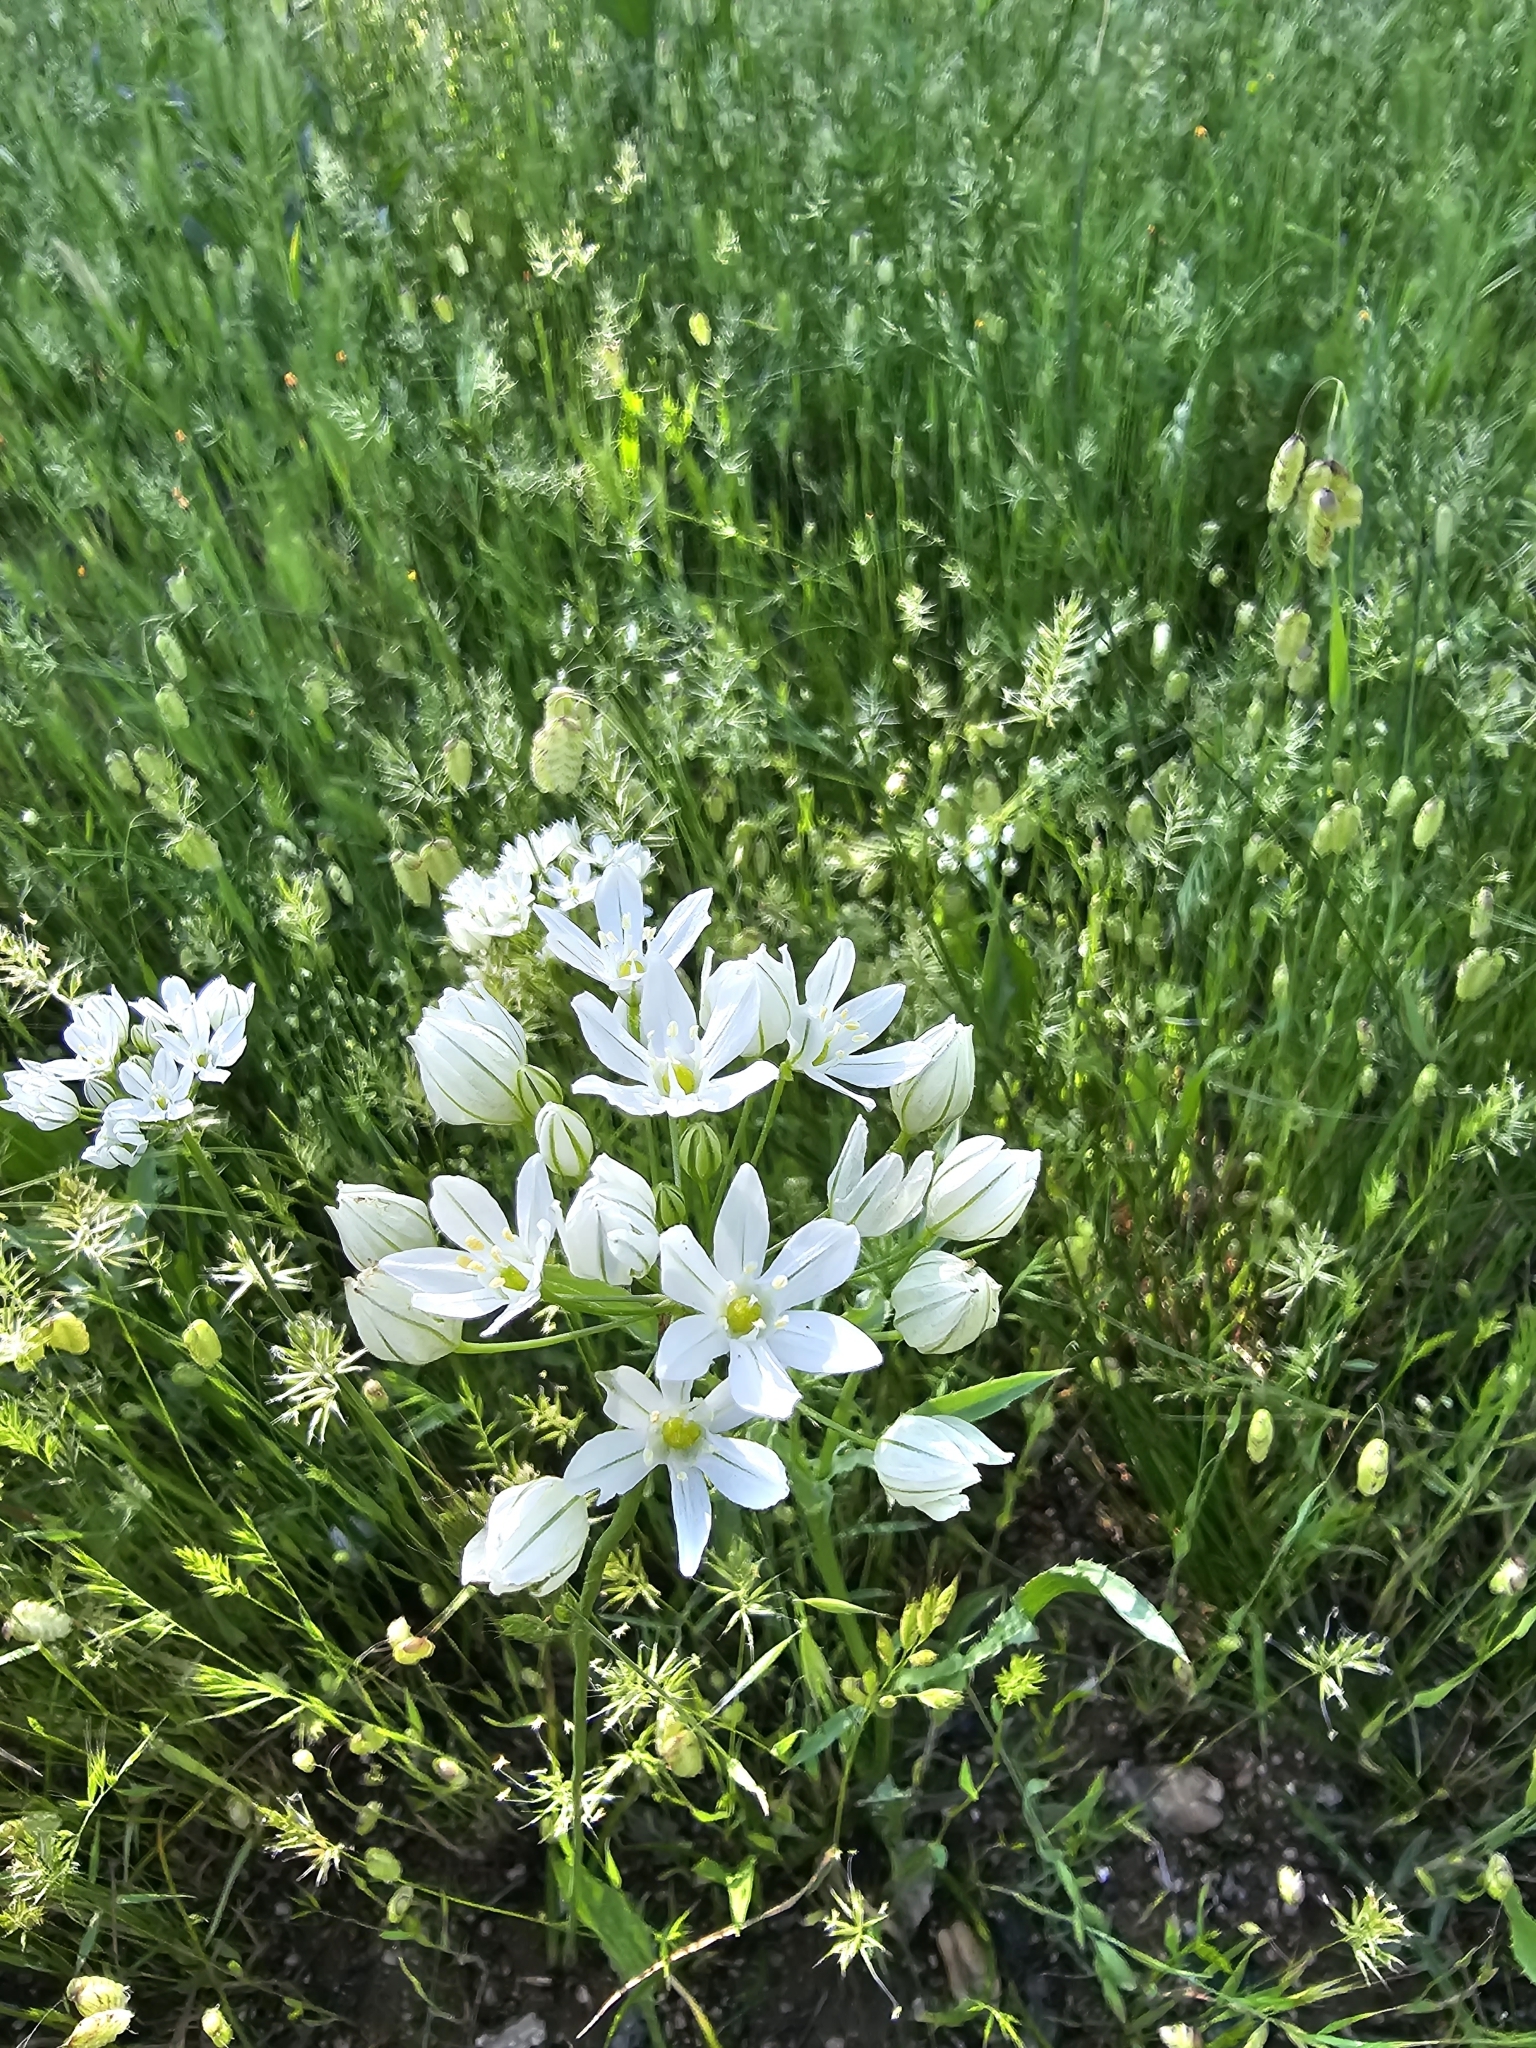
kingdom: Plantae
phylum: Tracheophyta
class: Liliopsida
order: Asparagales
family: Asparagaceae
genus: Triteleia
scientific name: Triteleia hyacinthina
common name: White brodiaea
